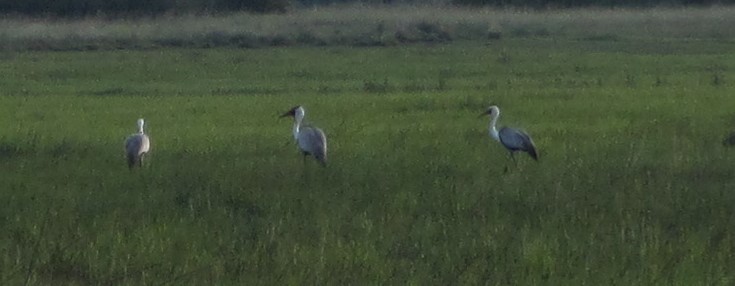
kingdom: Animalia
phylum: Chordata
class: Aves
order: Gruiformes
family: Gruidae
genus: Bugeranus
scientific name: Bugeranus carunculatus
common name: Wattled crane
